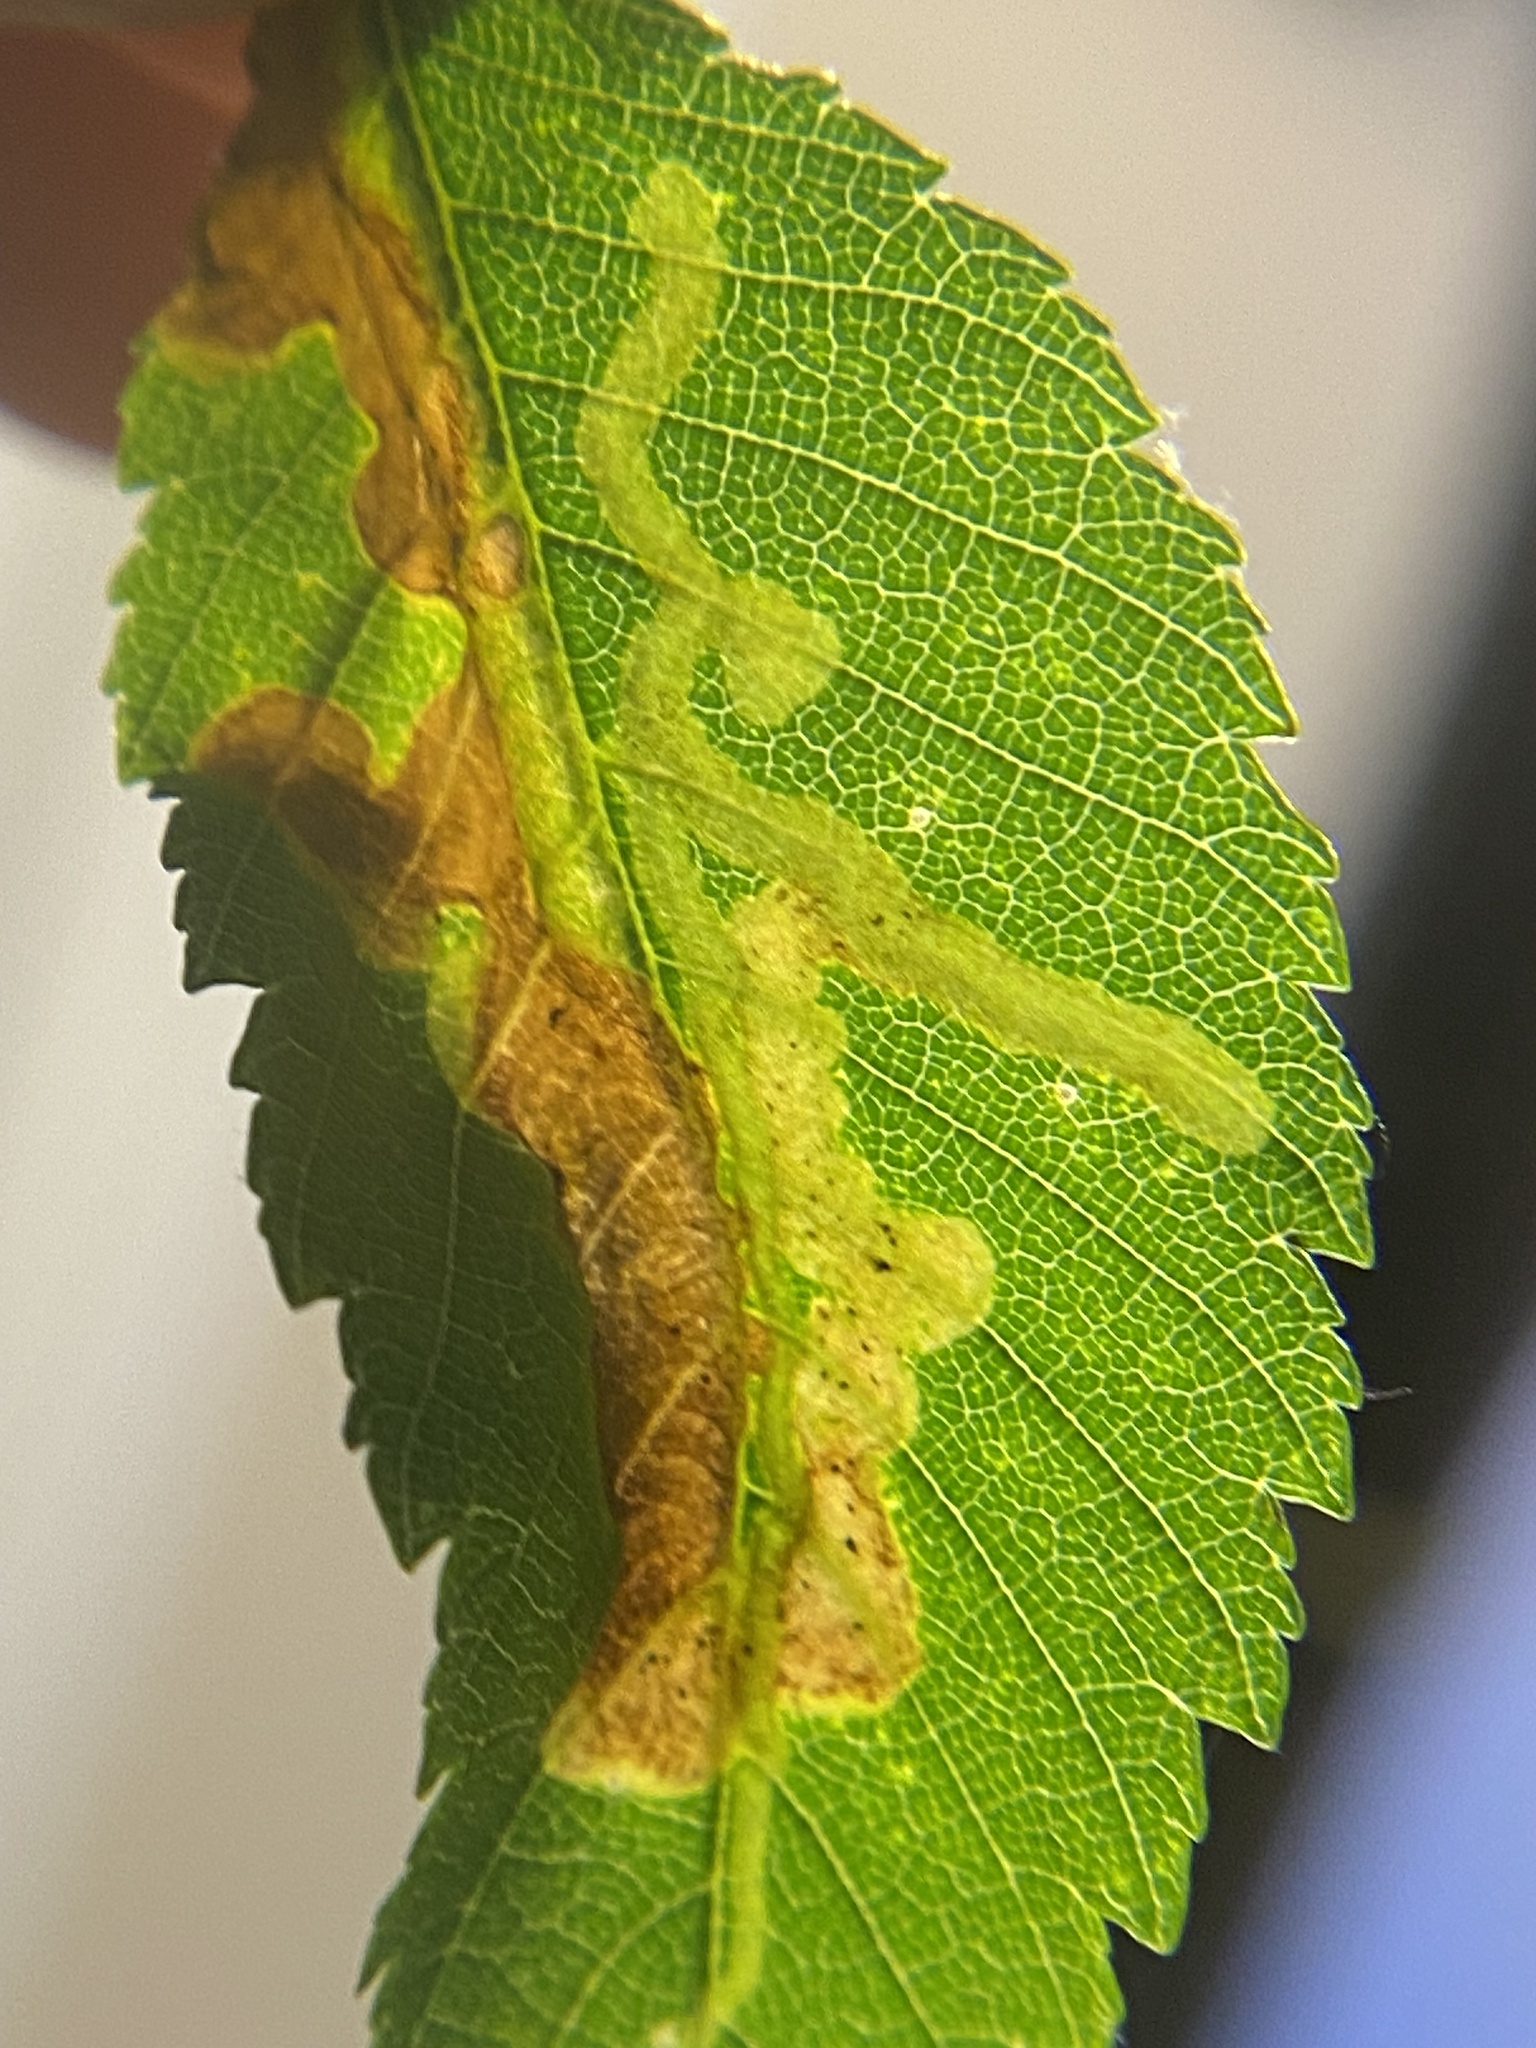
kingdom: Animalia
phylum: Arthropoda
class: Insecta
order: Diptera
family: Agromyzidae
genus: Agromyza
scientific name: Agromyza aristata
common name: Elm agromyzid leafminer
